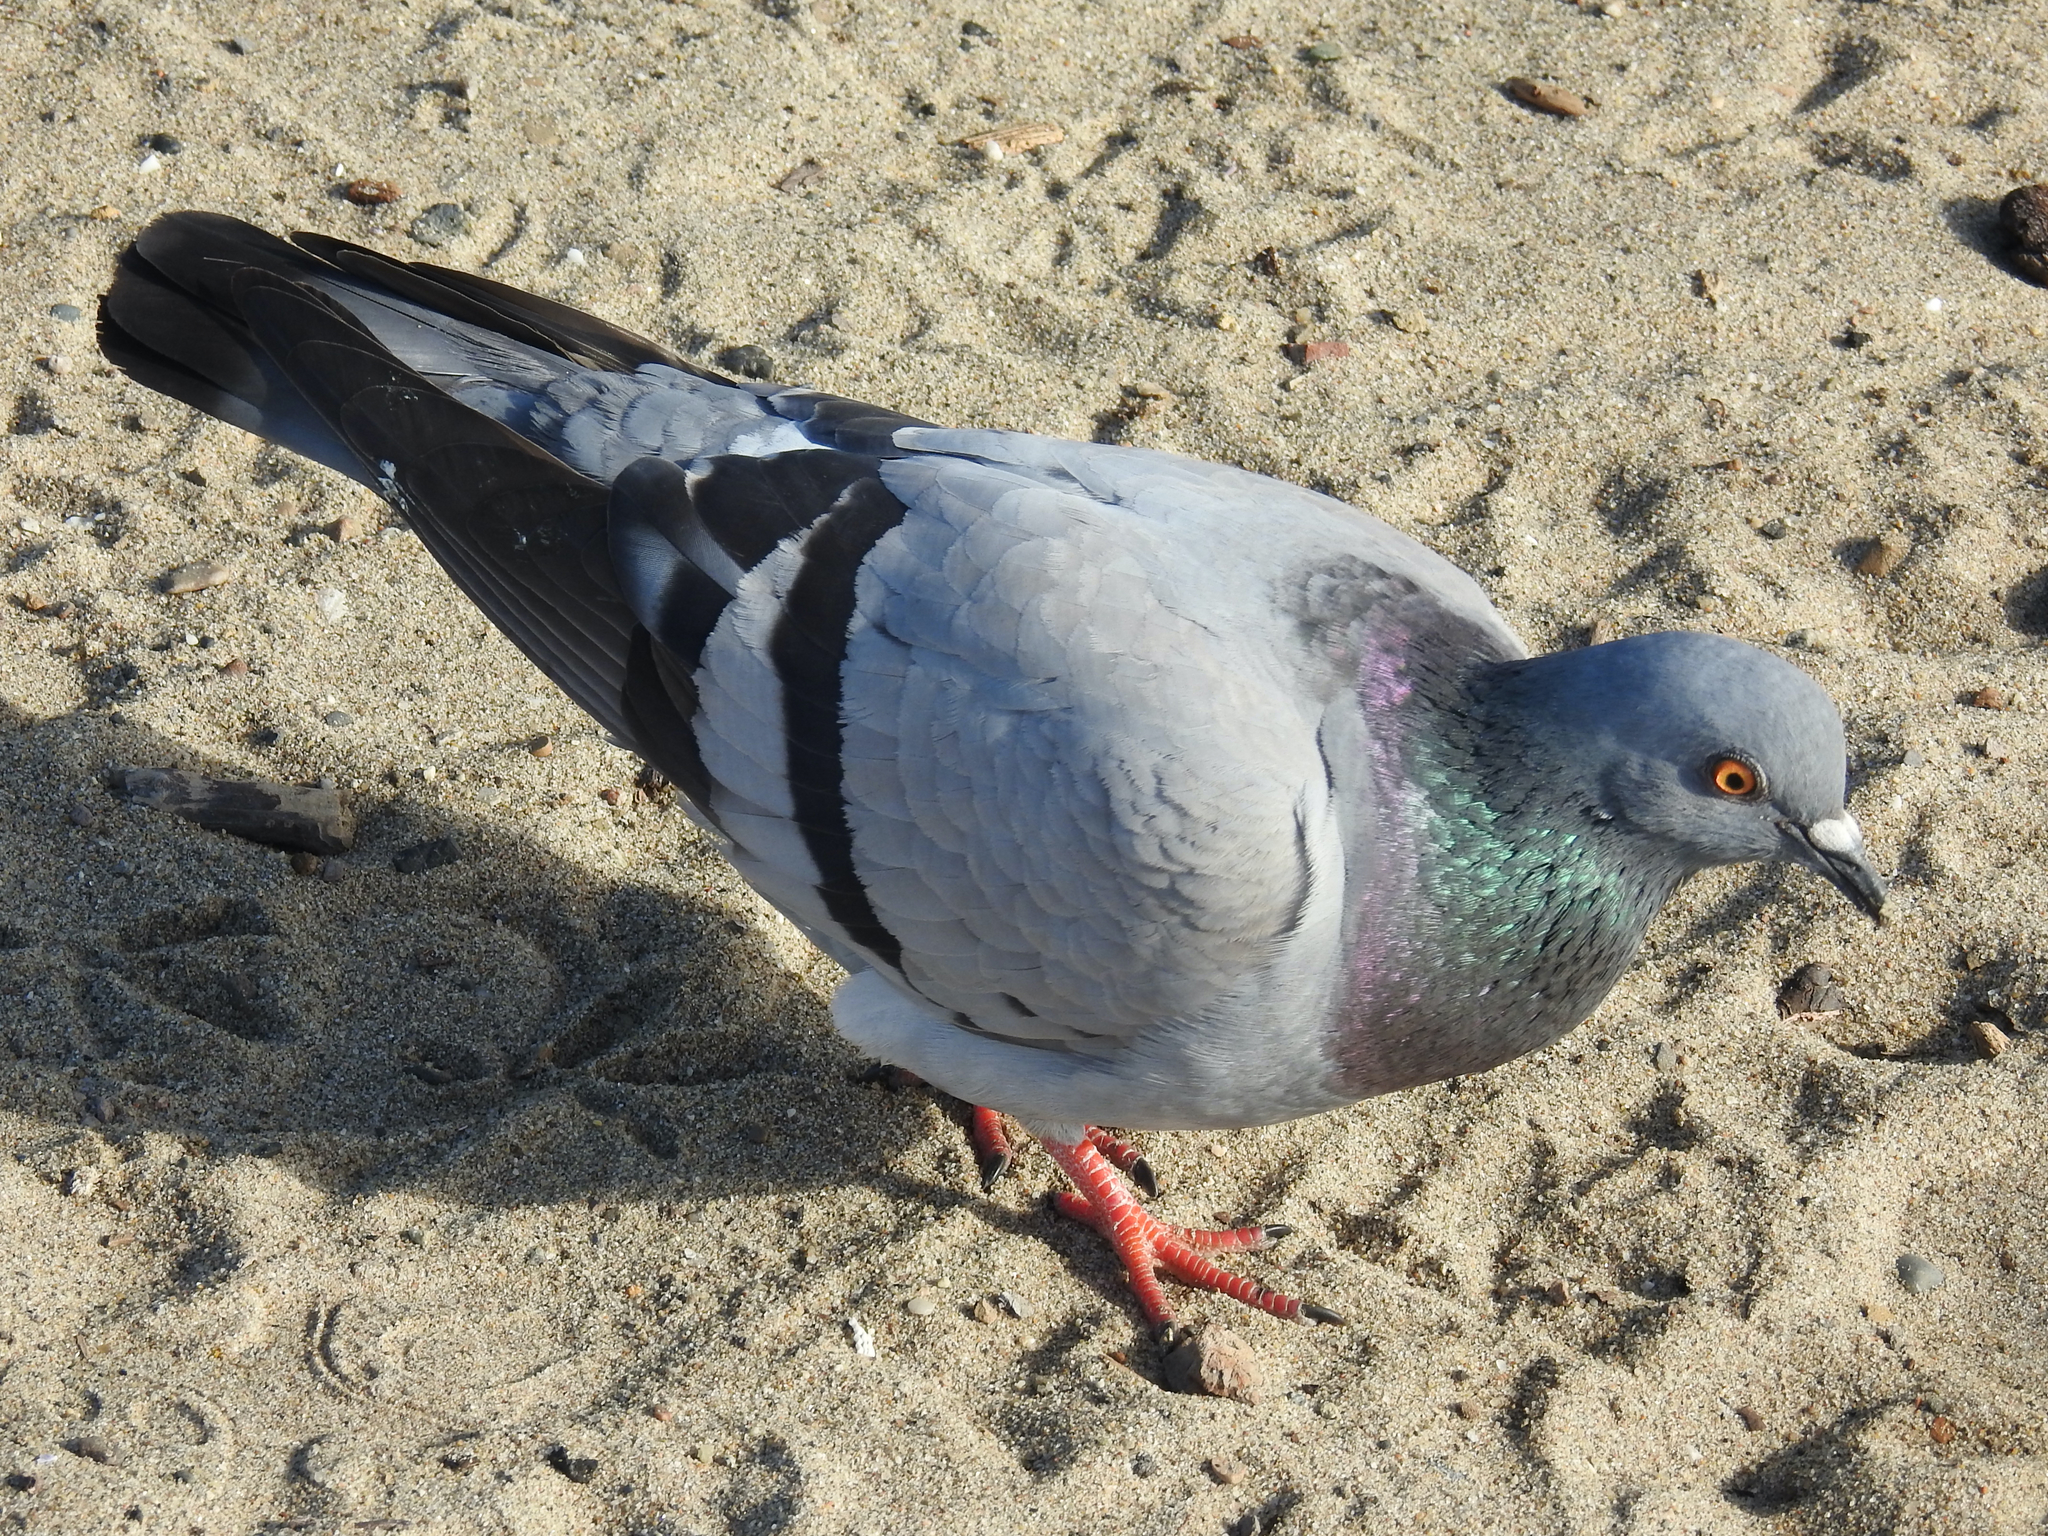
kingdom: Animalia
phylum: Chordata
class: Aves
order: Columbiformes
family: Columbidae
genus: Columba
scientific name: Columba livia
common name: Rock pigeon
